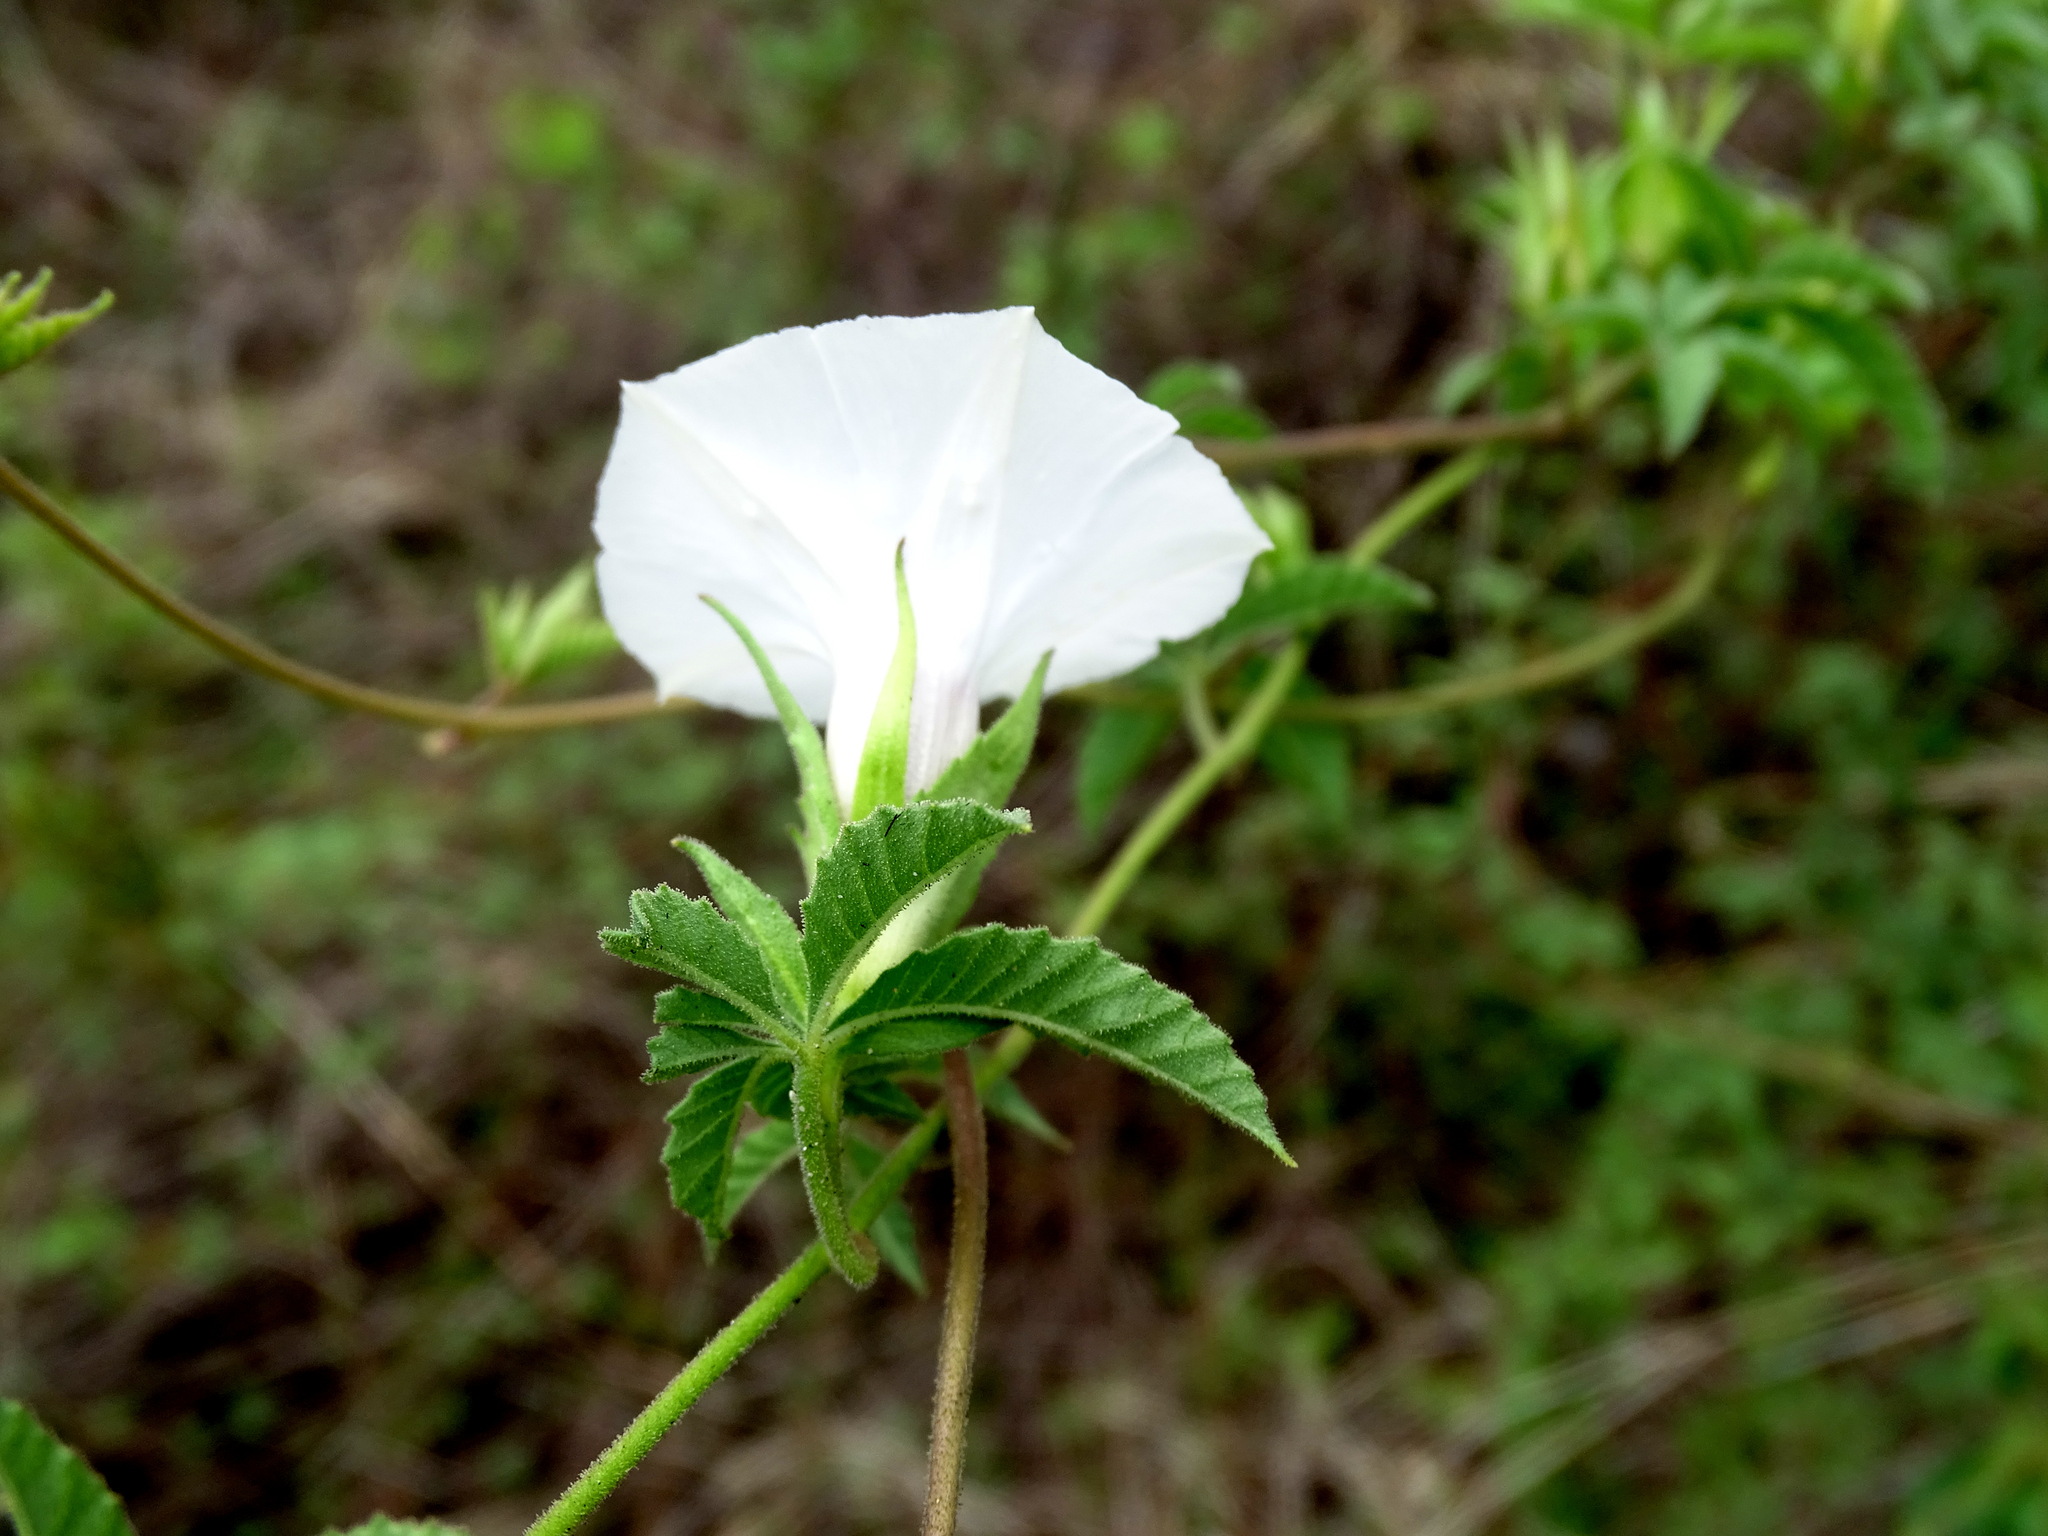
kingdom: Plantae
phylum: Tracheophyta
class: Magnoliopsida
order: Solanales
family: Convolvulaceae
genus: Distimake
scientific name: Distimake lobulibracteatus
